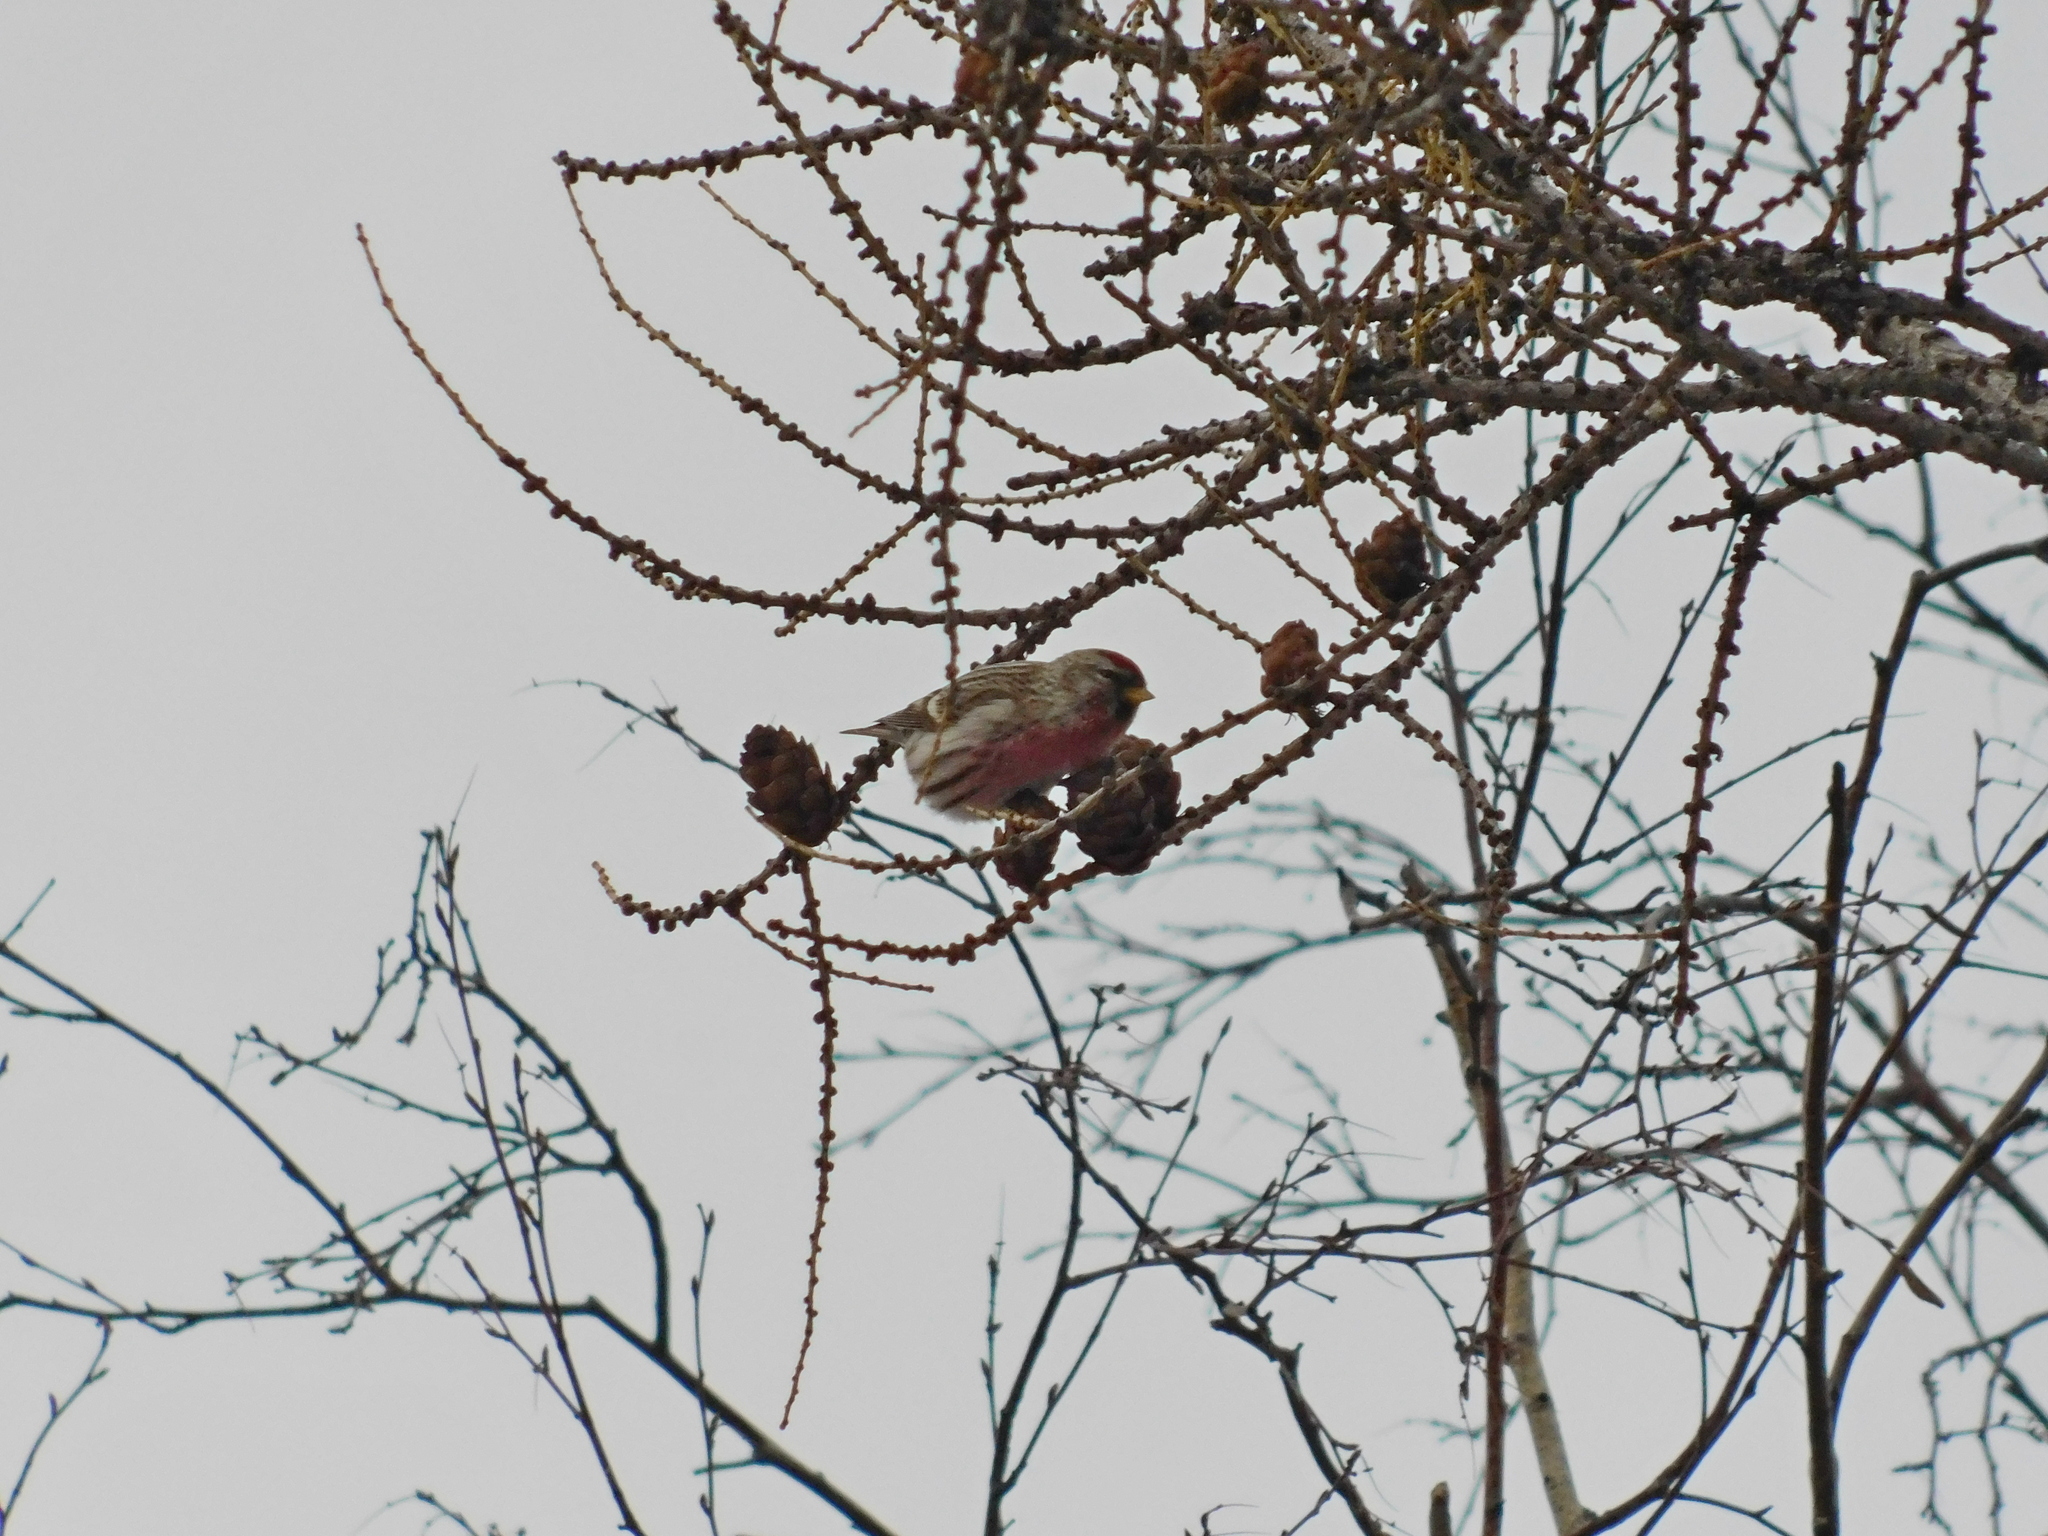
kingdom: Animalia
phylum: Chordata
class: Aves
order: Passeriformes
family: Fringillidae
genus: Acanthis
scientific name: Acanthis flammea
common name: Common redpoll
